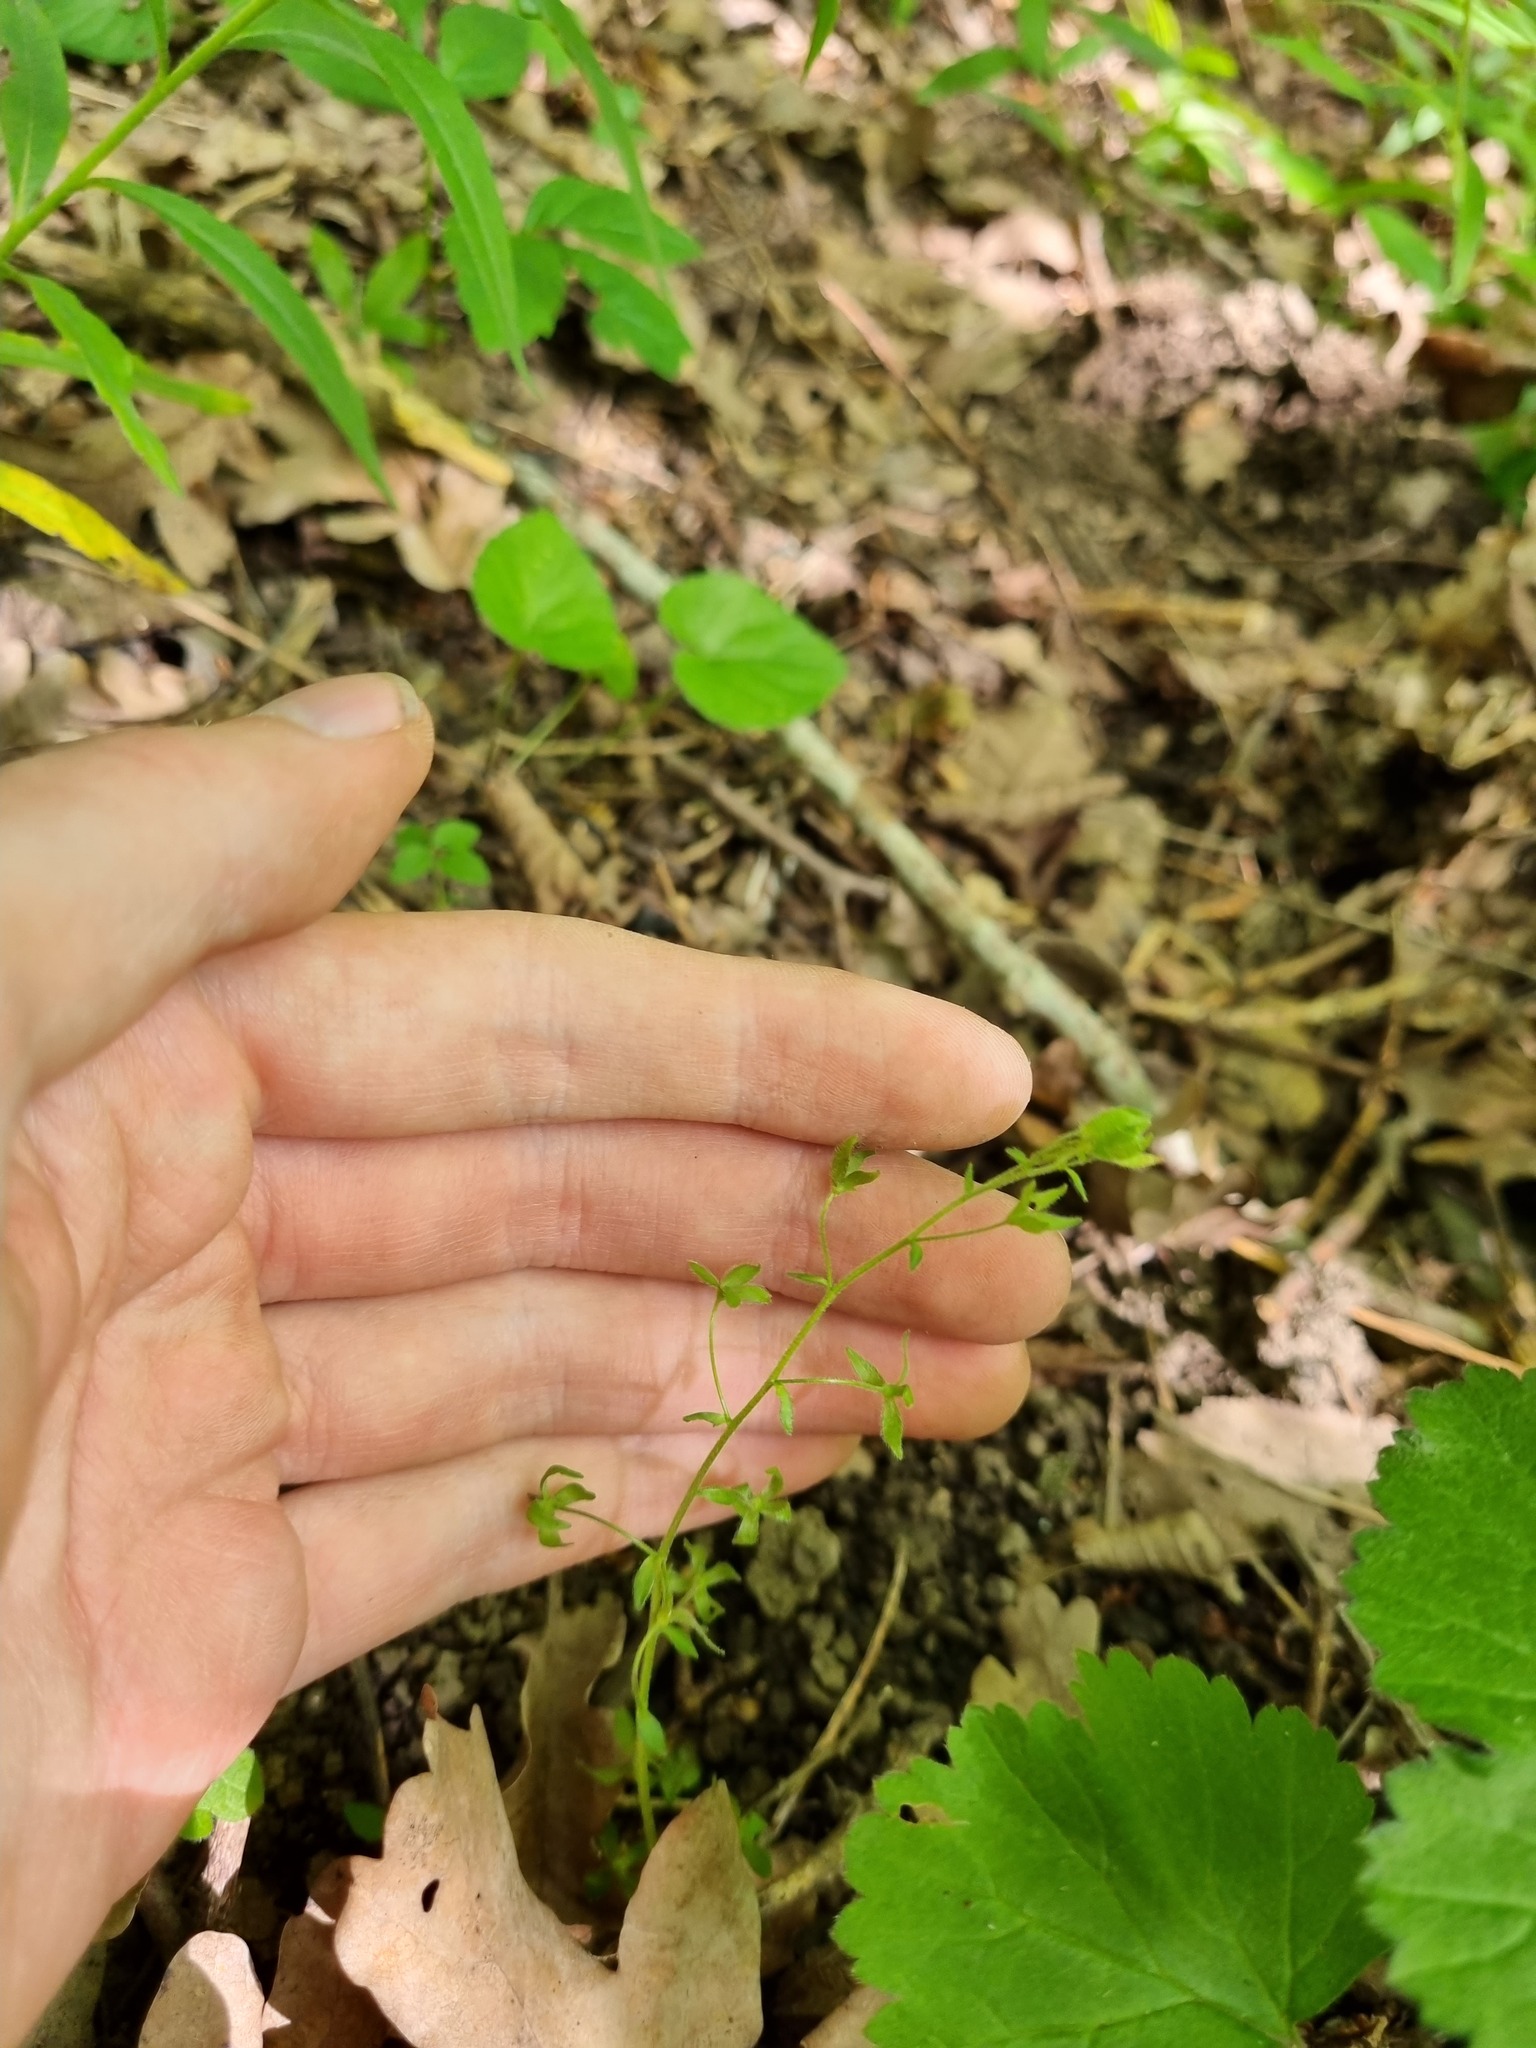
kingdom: Plantae
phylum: Tracheophyta
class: Magnoliopsida
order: Lamiales
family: Plantaginaceae
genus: Veronica
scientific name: Veronica
